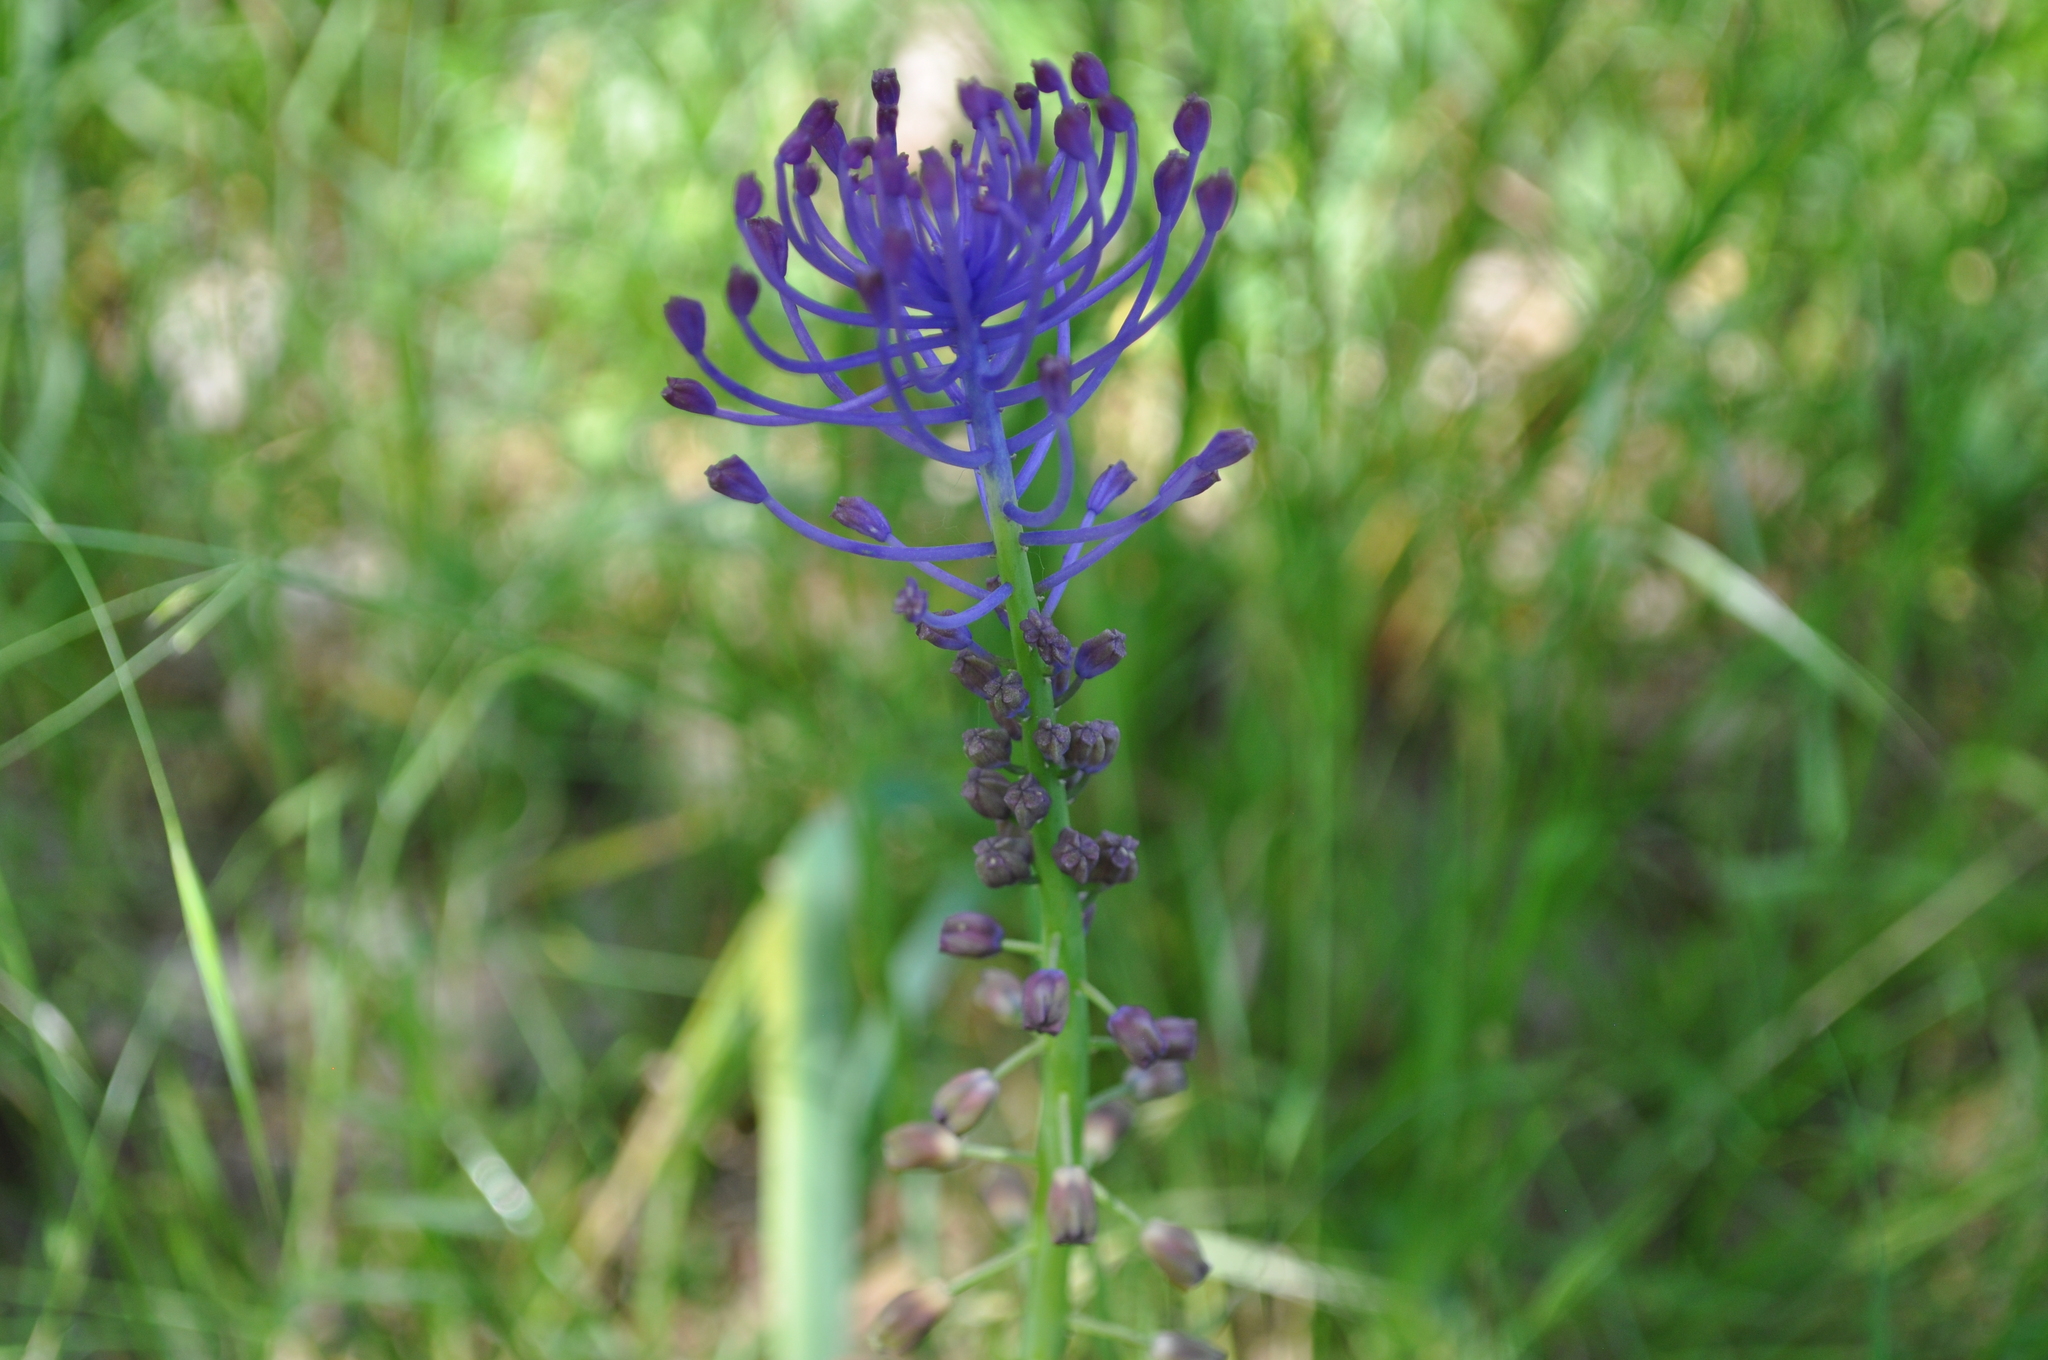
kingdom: Plantae
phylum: Tracheophyta
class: Liliopsida
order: Asparagales
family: Asparagaceae
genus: Muscari
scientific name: Muscari comosum
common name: Tassel hyacinth
